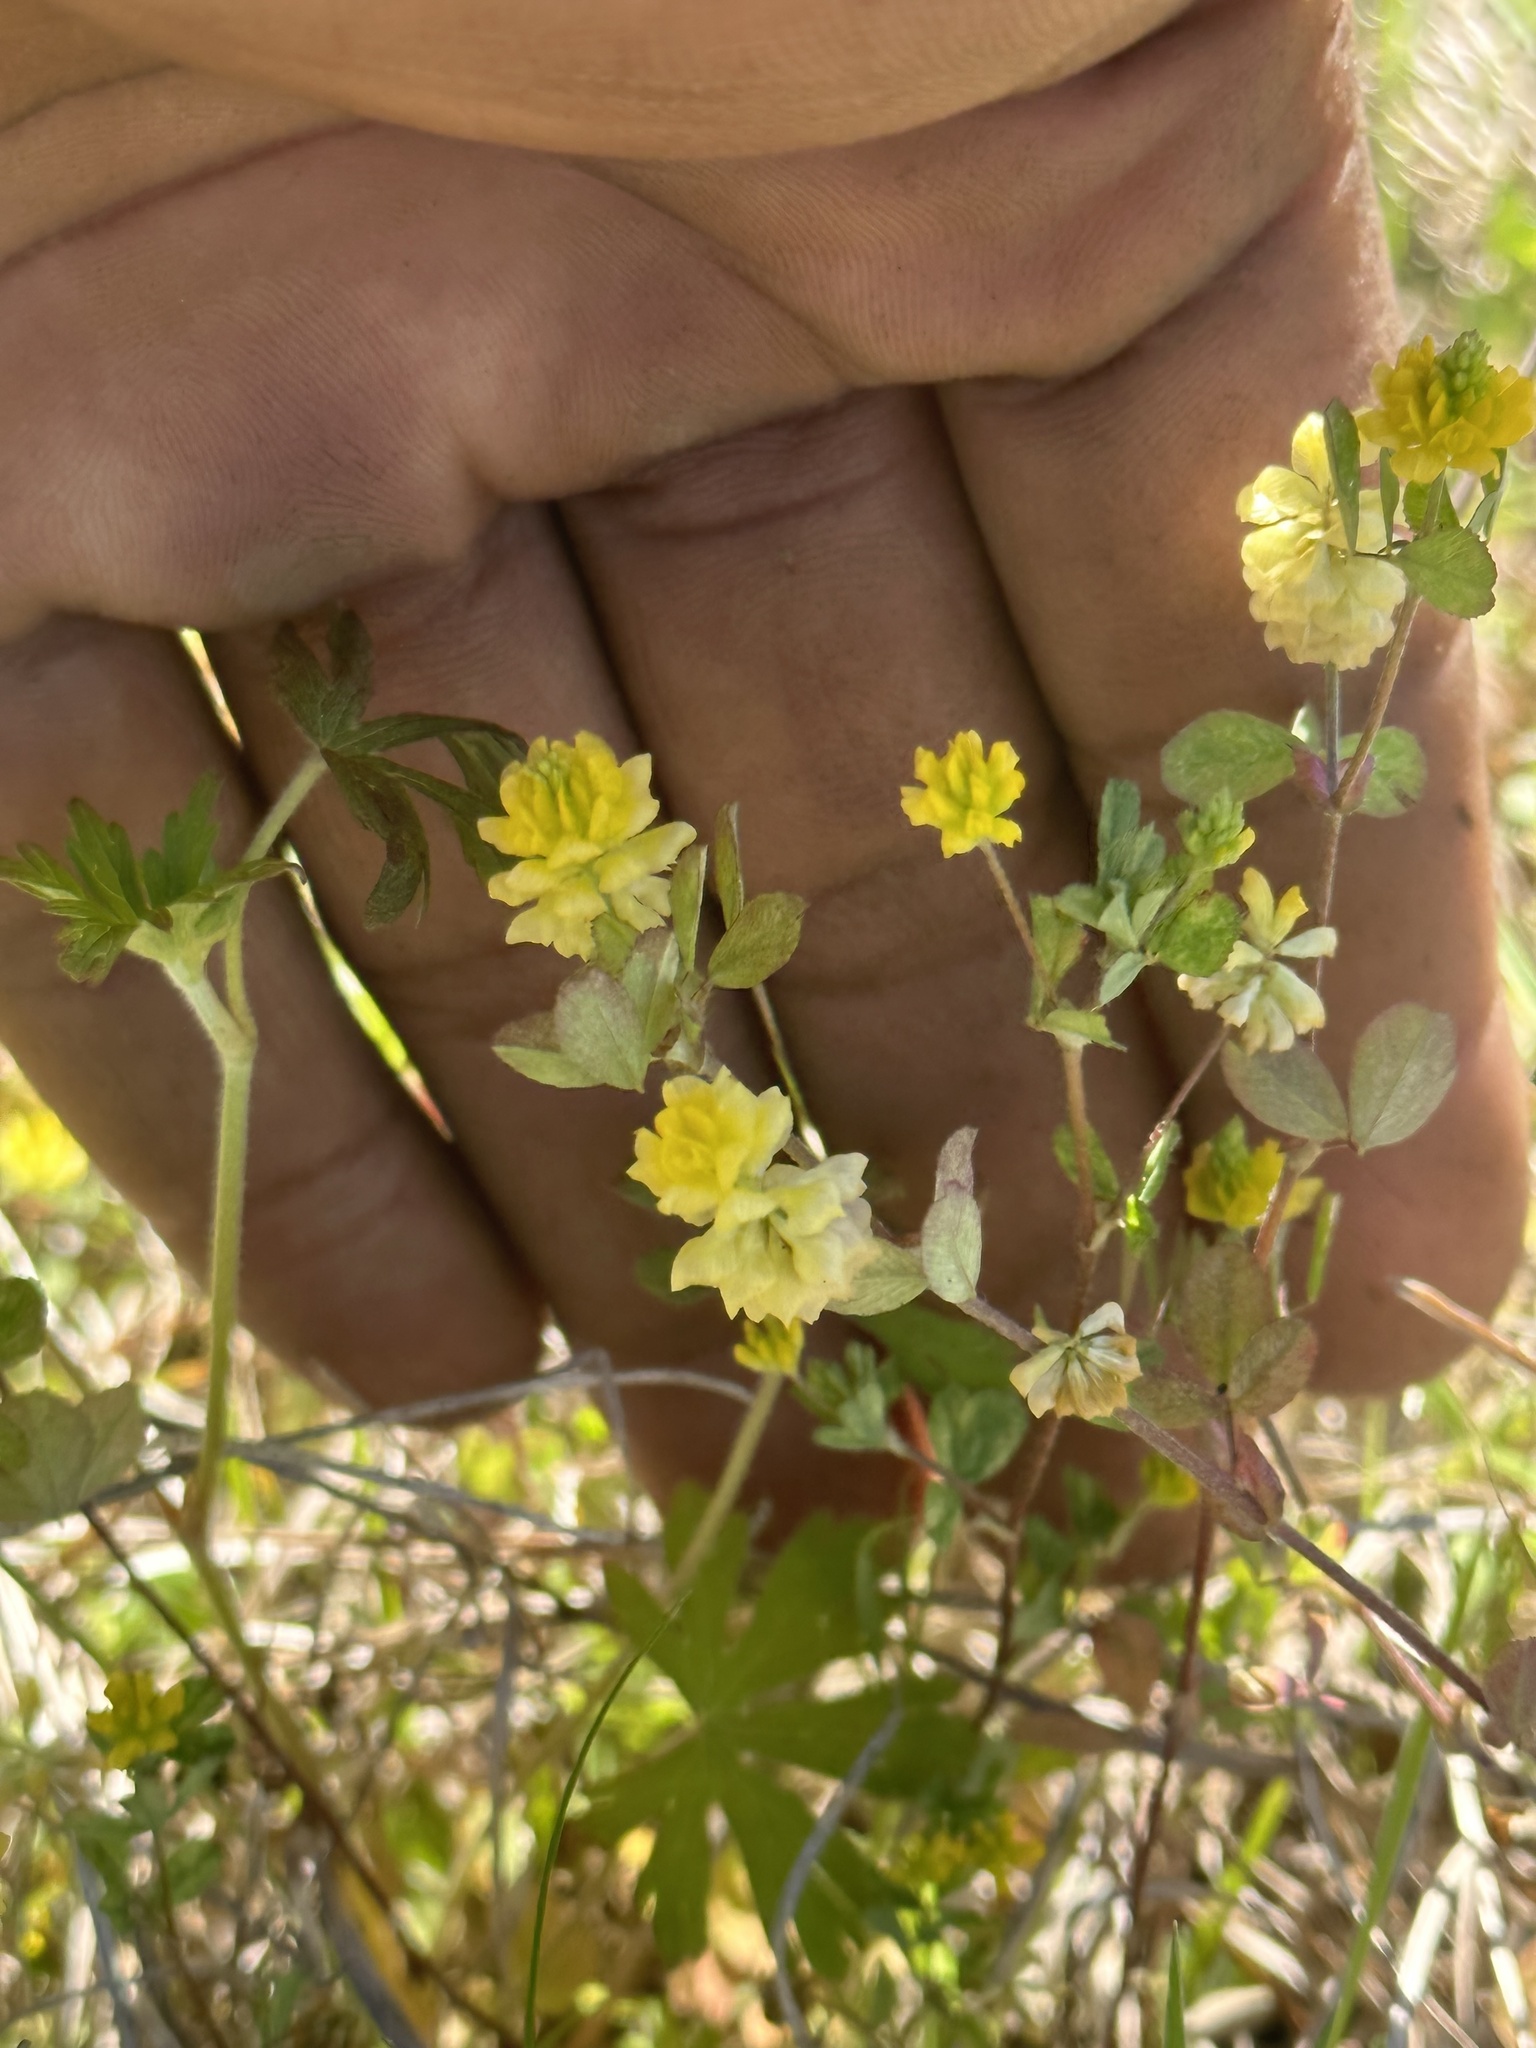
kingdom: Plantae
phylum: Tracheophyta
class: Magnoliopsida
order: Fabales
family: Fabaceae
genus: Trifolium
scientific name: Trifolium campestre
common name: Field clover
